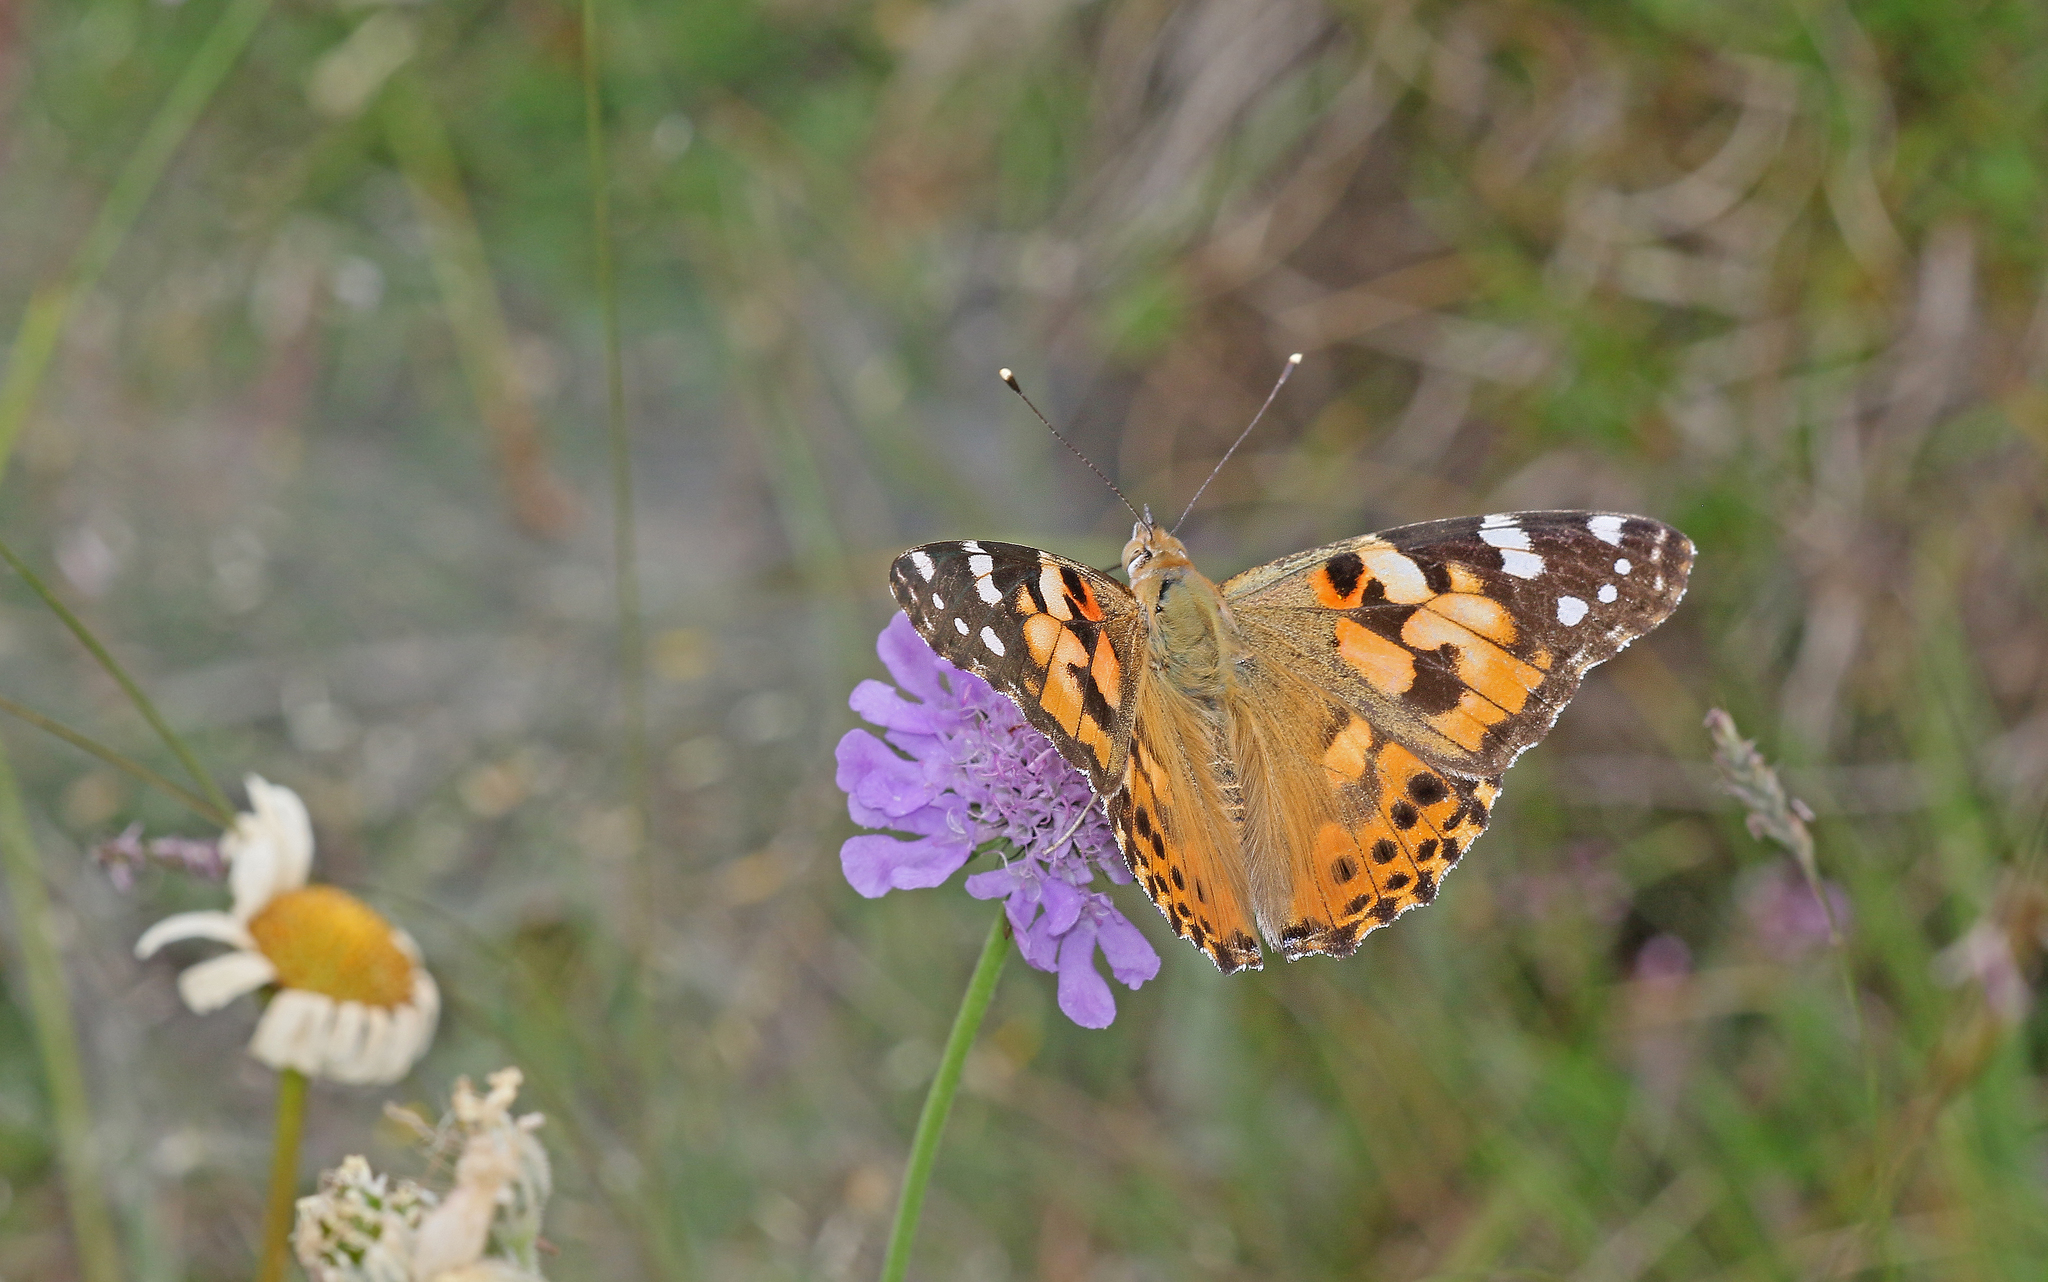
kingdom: Animalia
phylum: Arthropoda
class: Insecta
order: Lepidoptera
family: Nymphalidae
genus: Vanessa
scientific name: Vanessa cardui
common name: Painted lady
